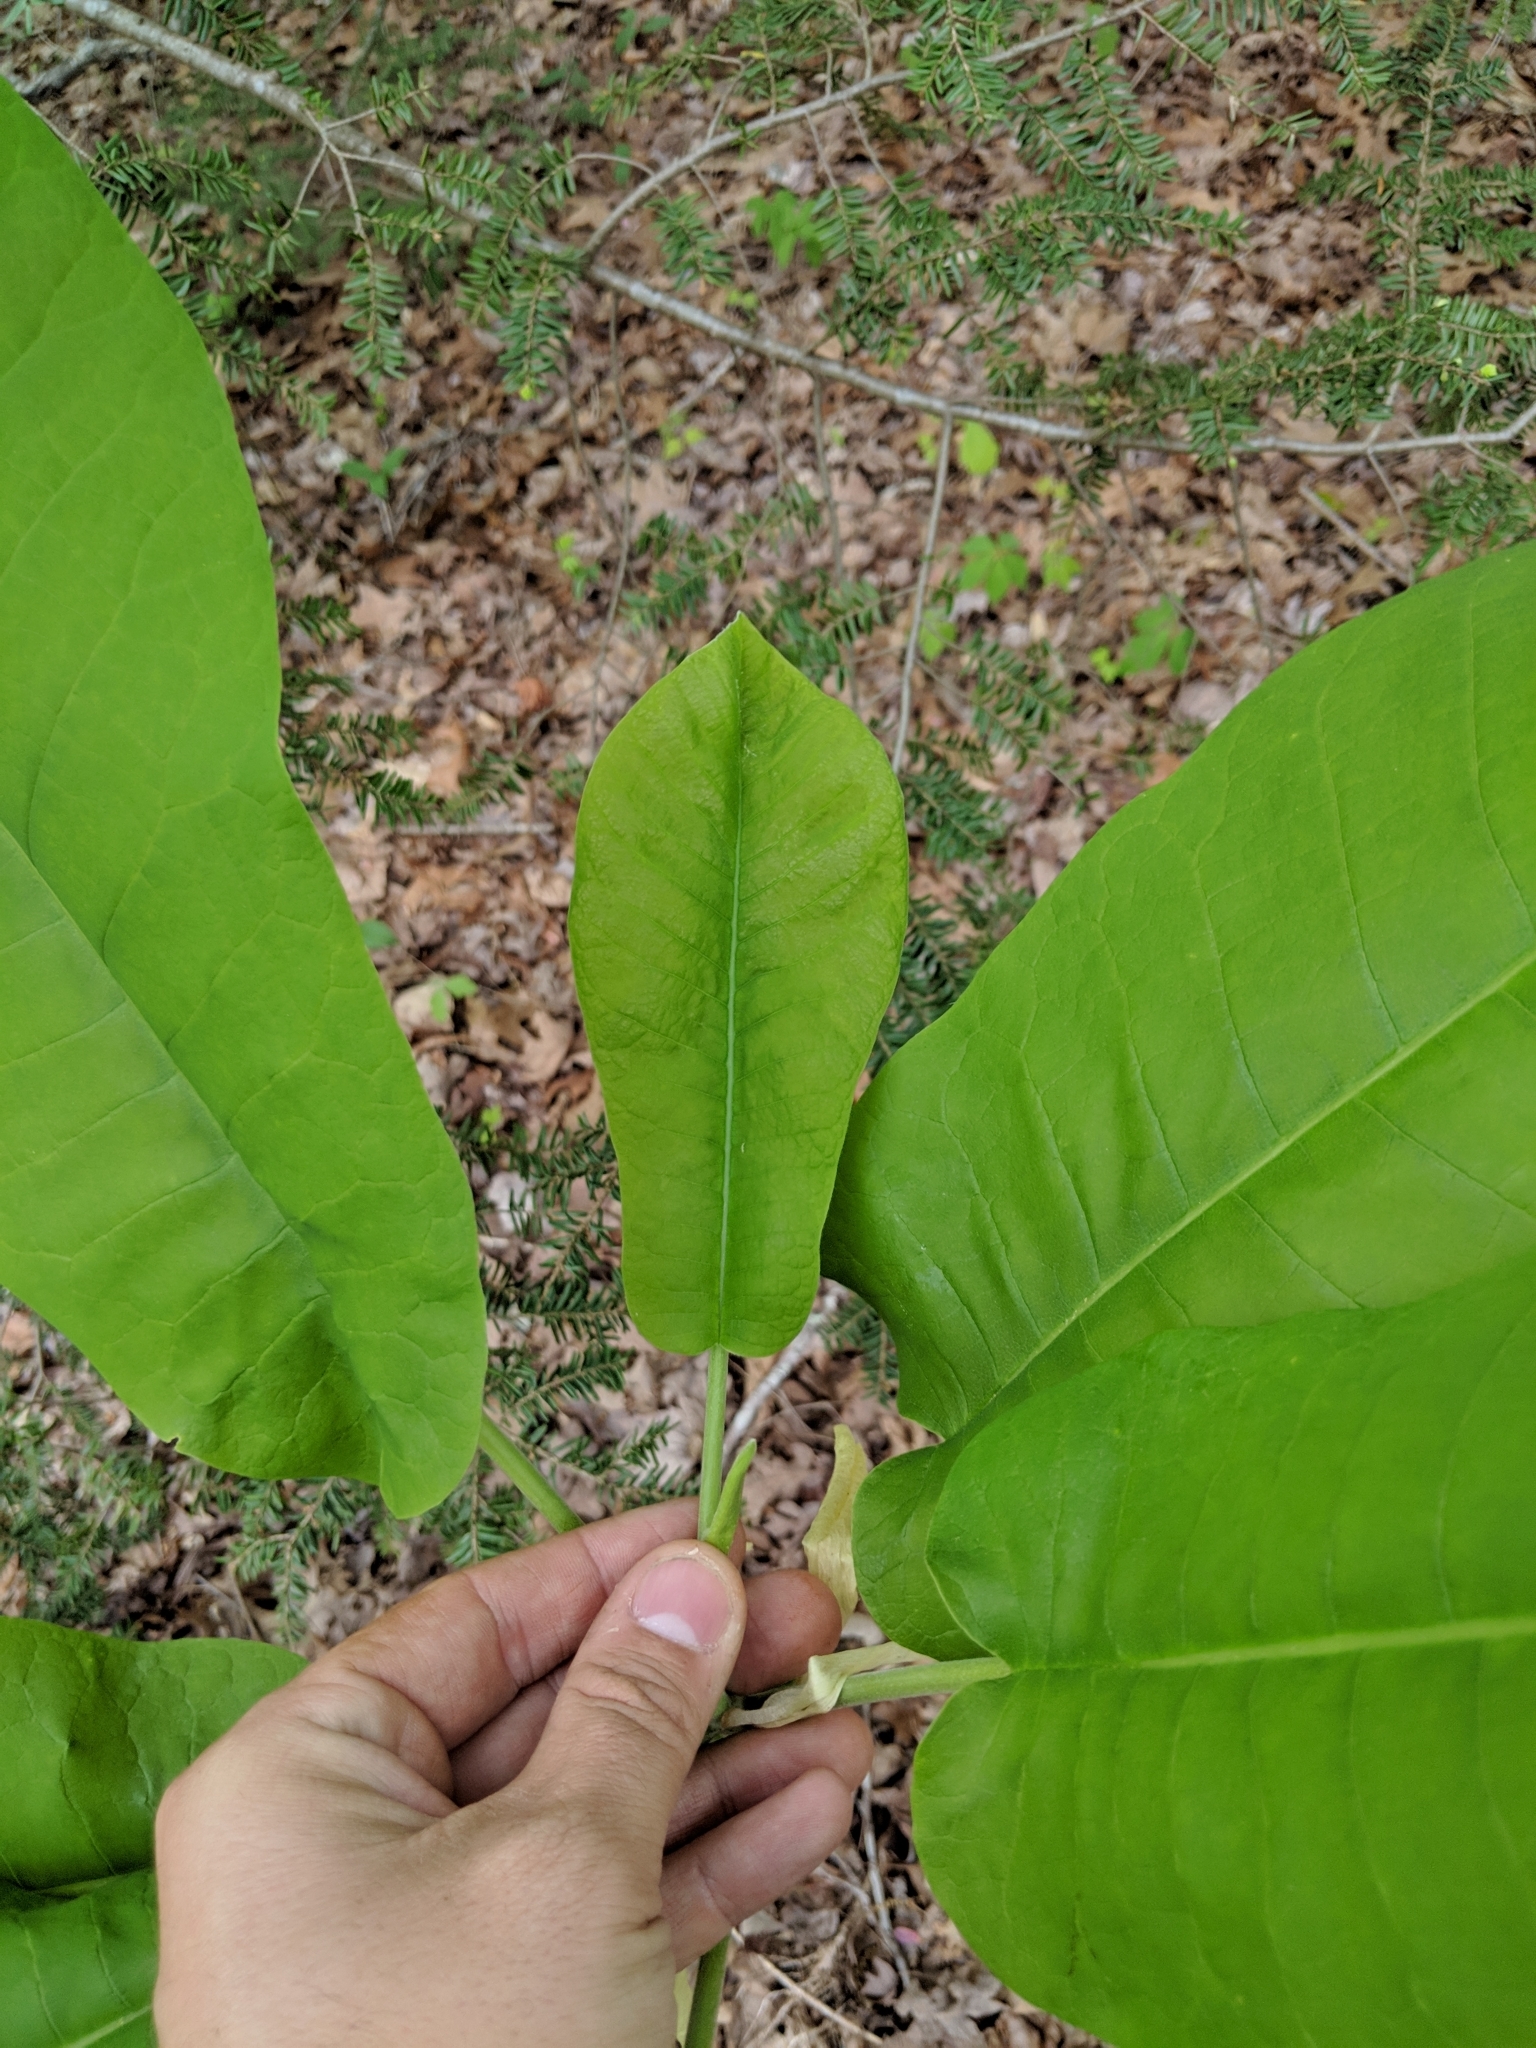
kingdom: Plantae
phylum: Tracheophyta
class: Magnoliopsida
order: Magnoliales
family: Magnoliaceae
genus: Magnolia
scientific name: Magnolia macrophylla
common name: Big-leaf magnolia
